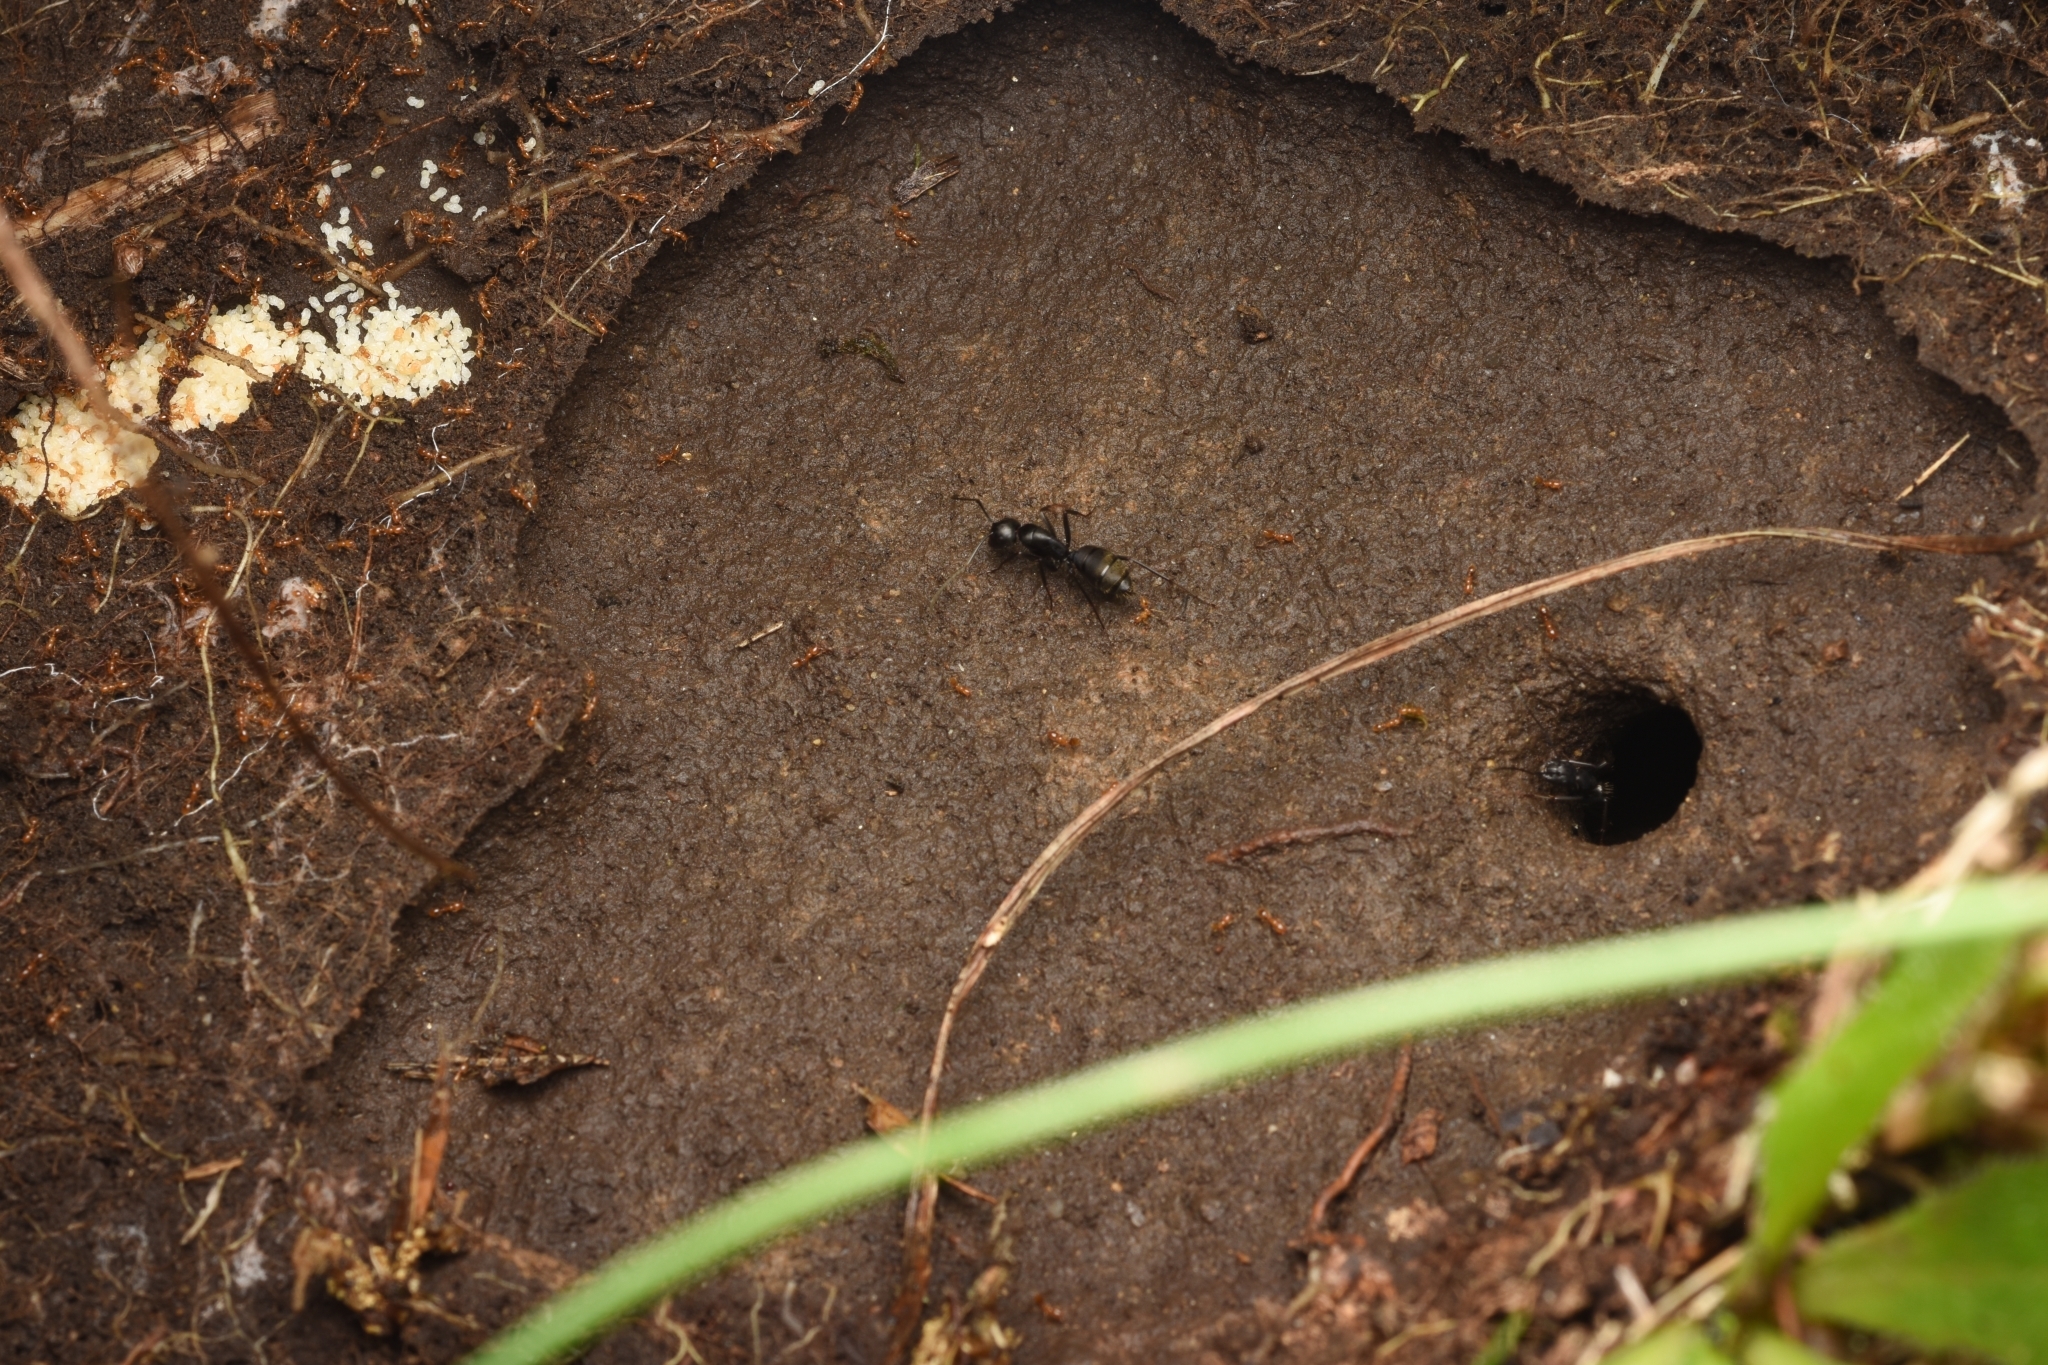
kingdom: Animalia
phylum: Arthropoda
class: Insecta
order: Hymenoptera
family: Formicidae
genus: Solenopsis
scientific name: Solenopsis japonica
